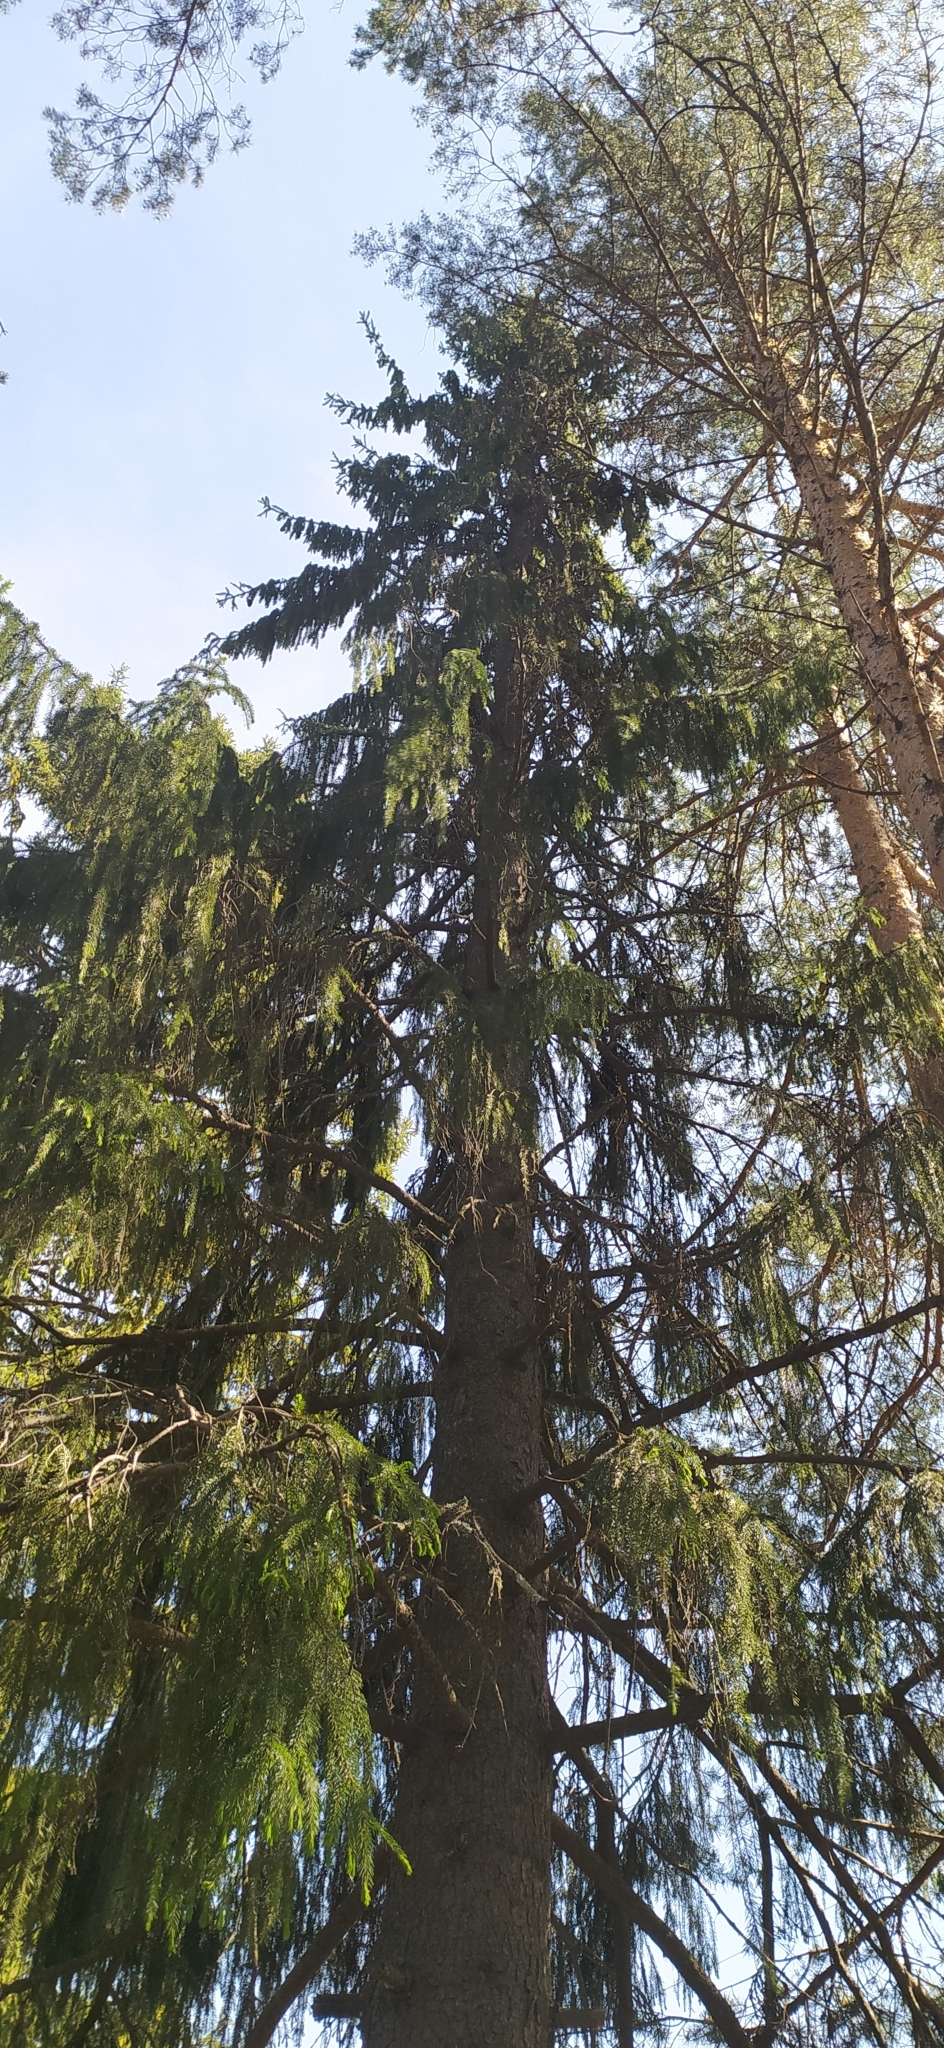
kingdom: Plantae
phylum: Tracheophyta
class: Pinopsida
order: Pinales
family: Pinaceae
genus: Picea
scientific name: Picea obovata
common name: Siberian spruce
